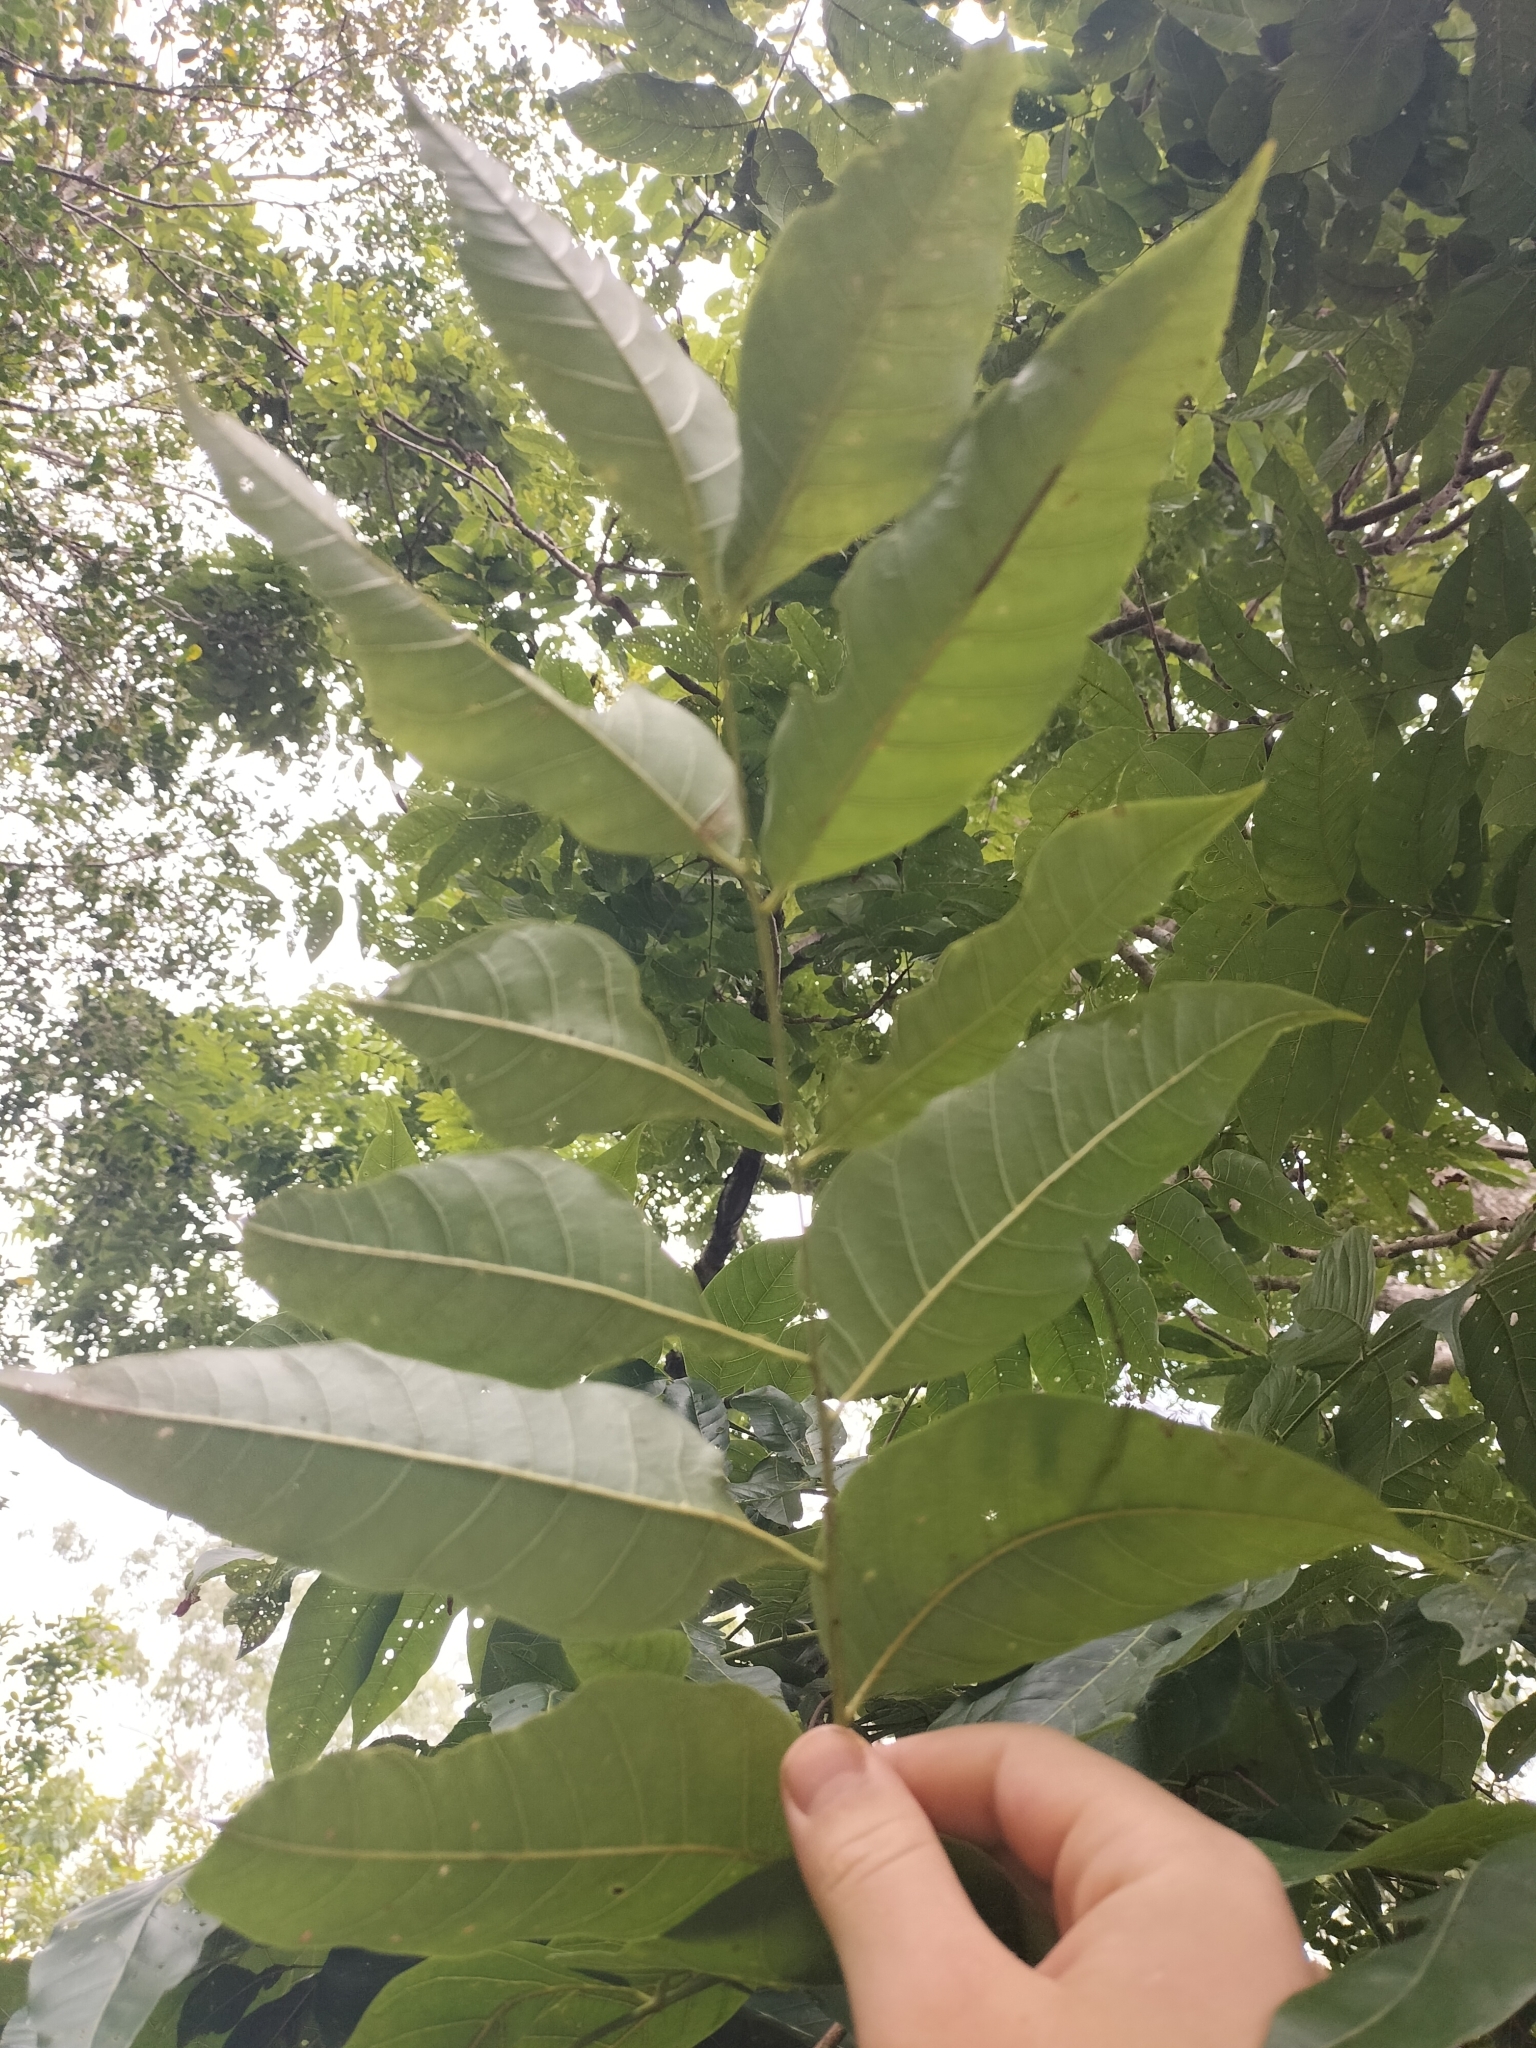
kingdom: Plantae
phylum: Tracheophyta
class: Magnoliopsida
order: Sapindales
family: Meliaceae
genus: Toona
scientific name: Toona ciliata
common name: Australian redcedar
